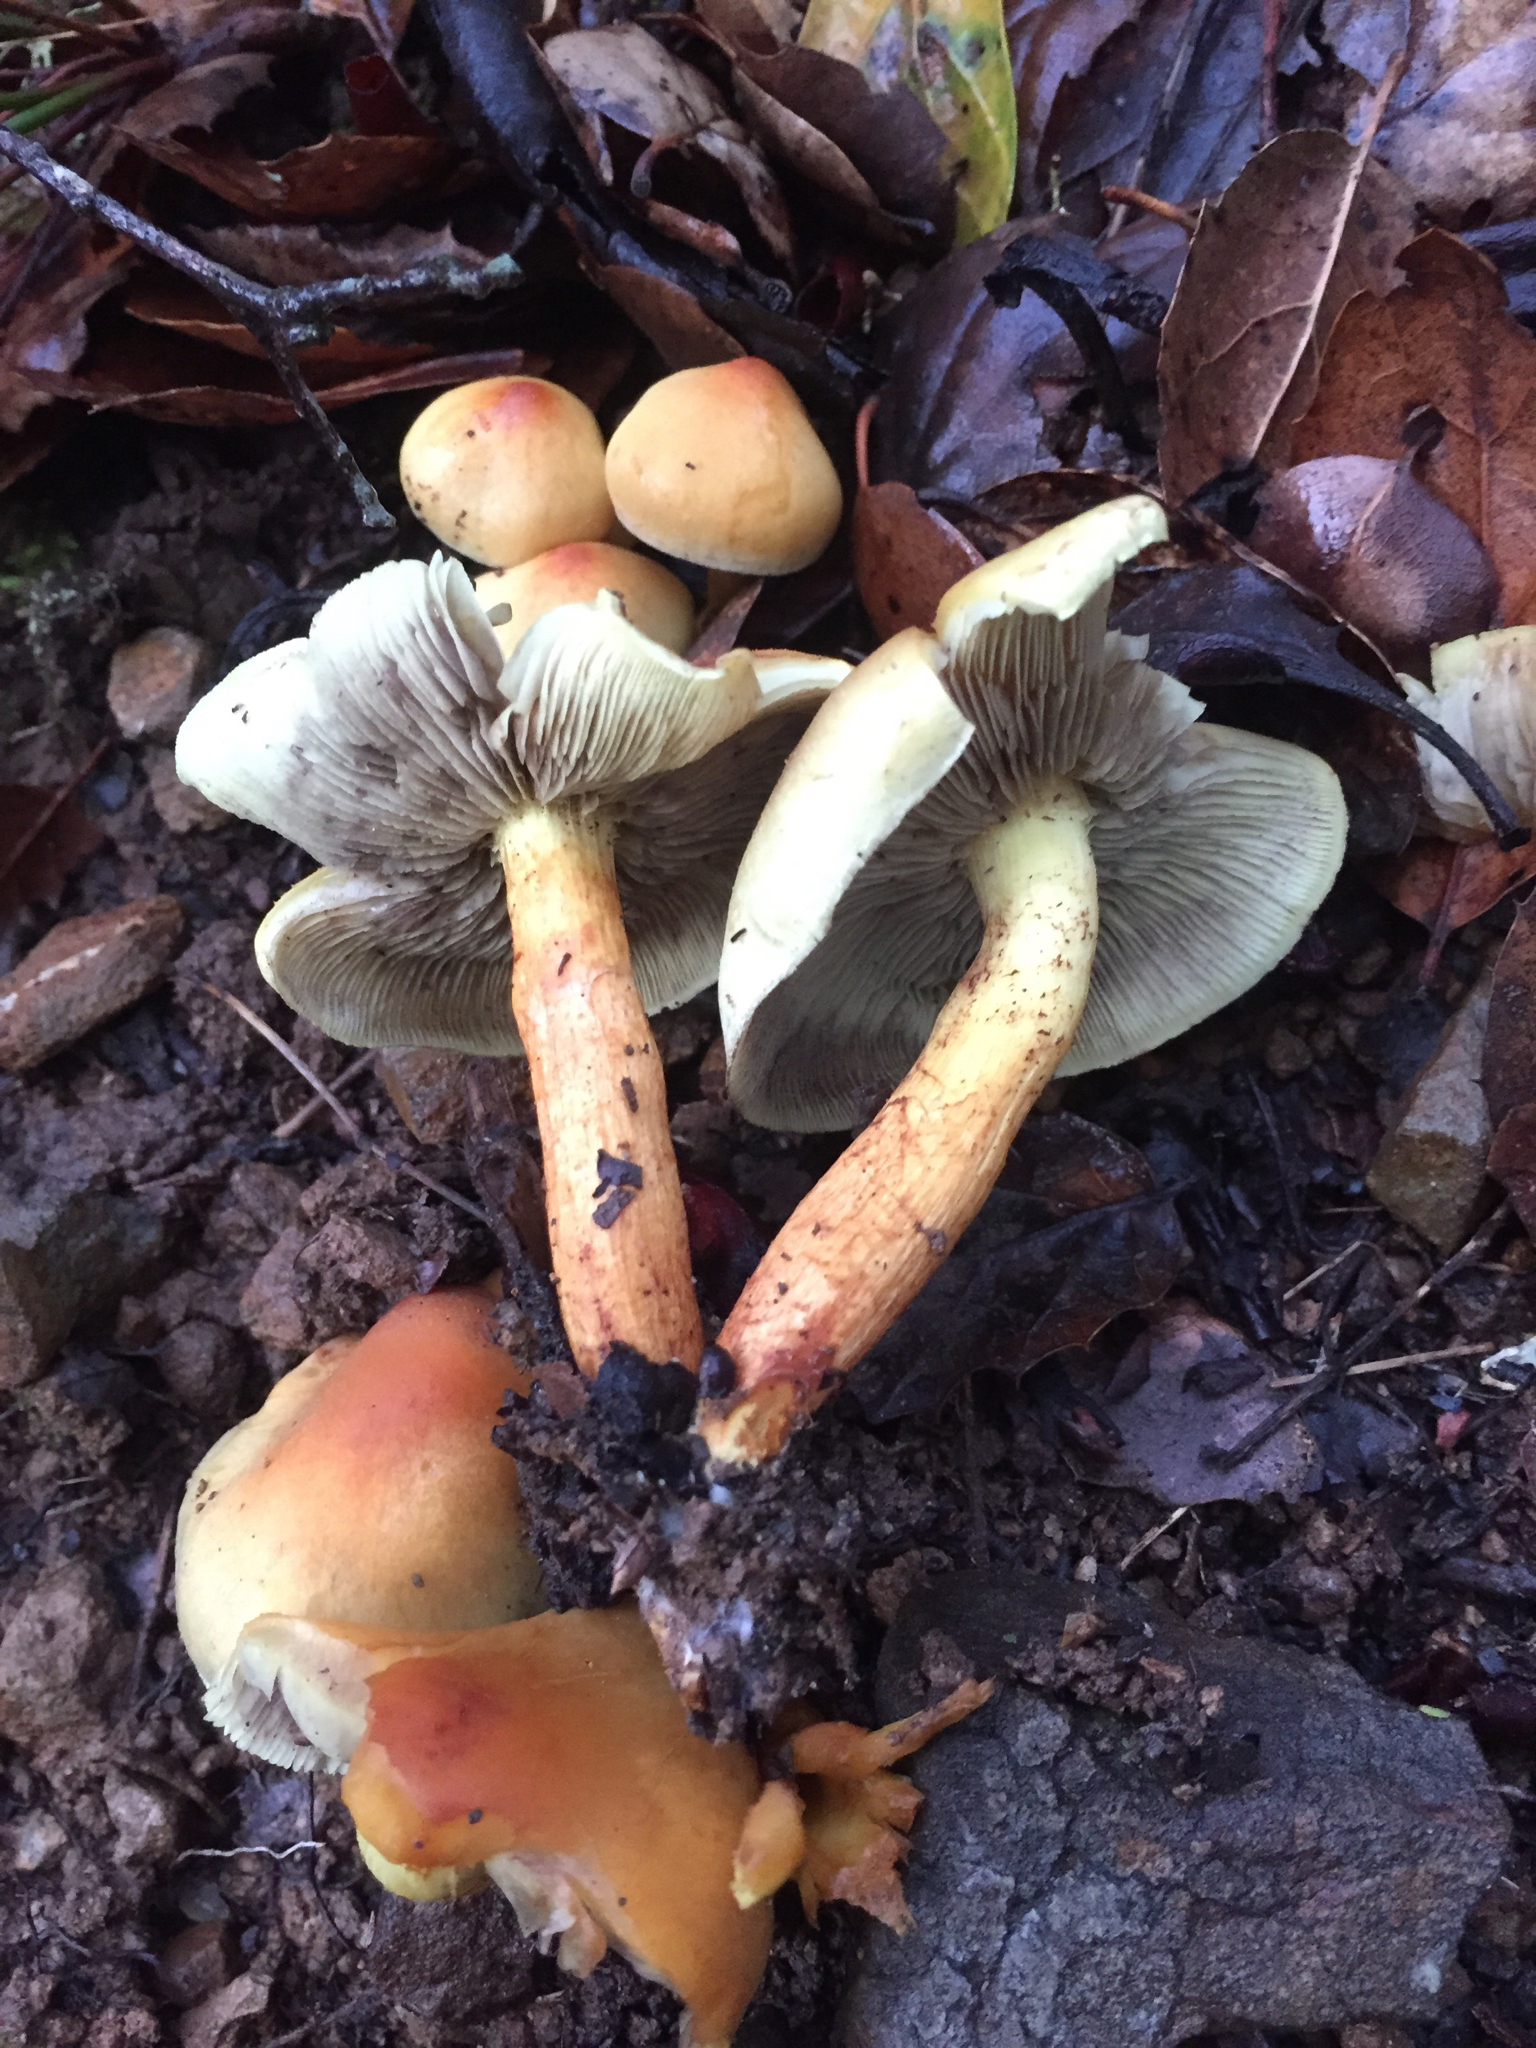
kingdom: Fungi
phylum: Basidiomycota
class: Agaricomycetes
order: Agaricales
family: Strophariaceae
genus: Hypholoma
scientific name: Hypholoma fasciculare
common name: Sulphur tuft
